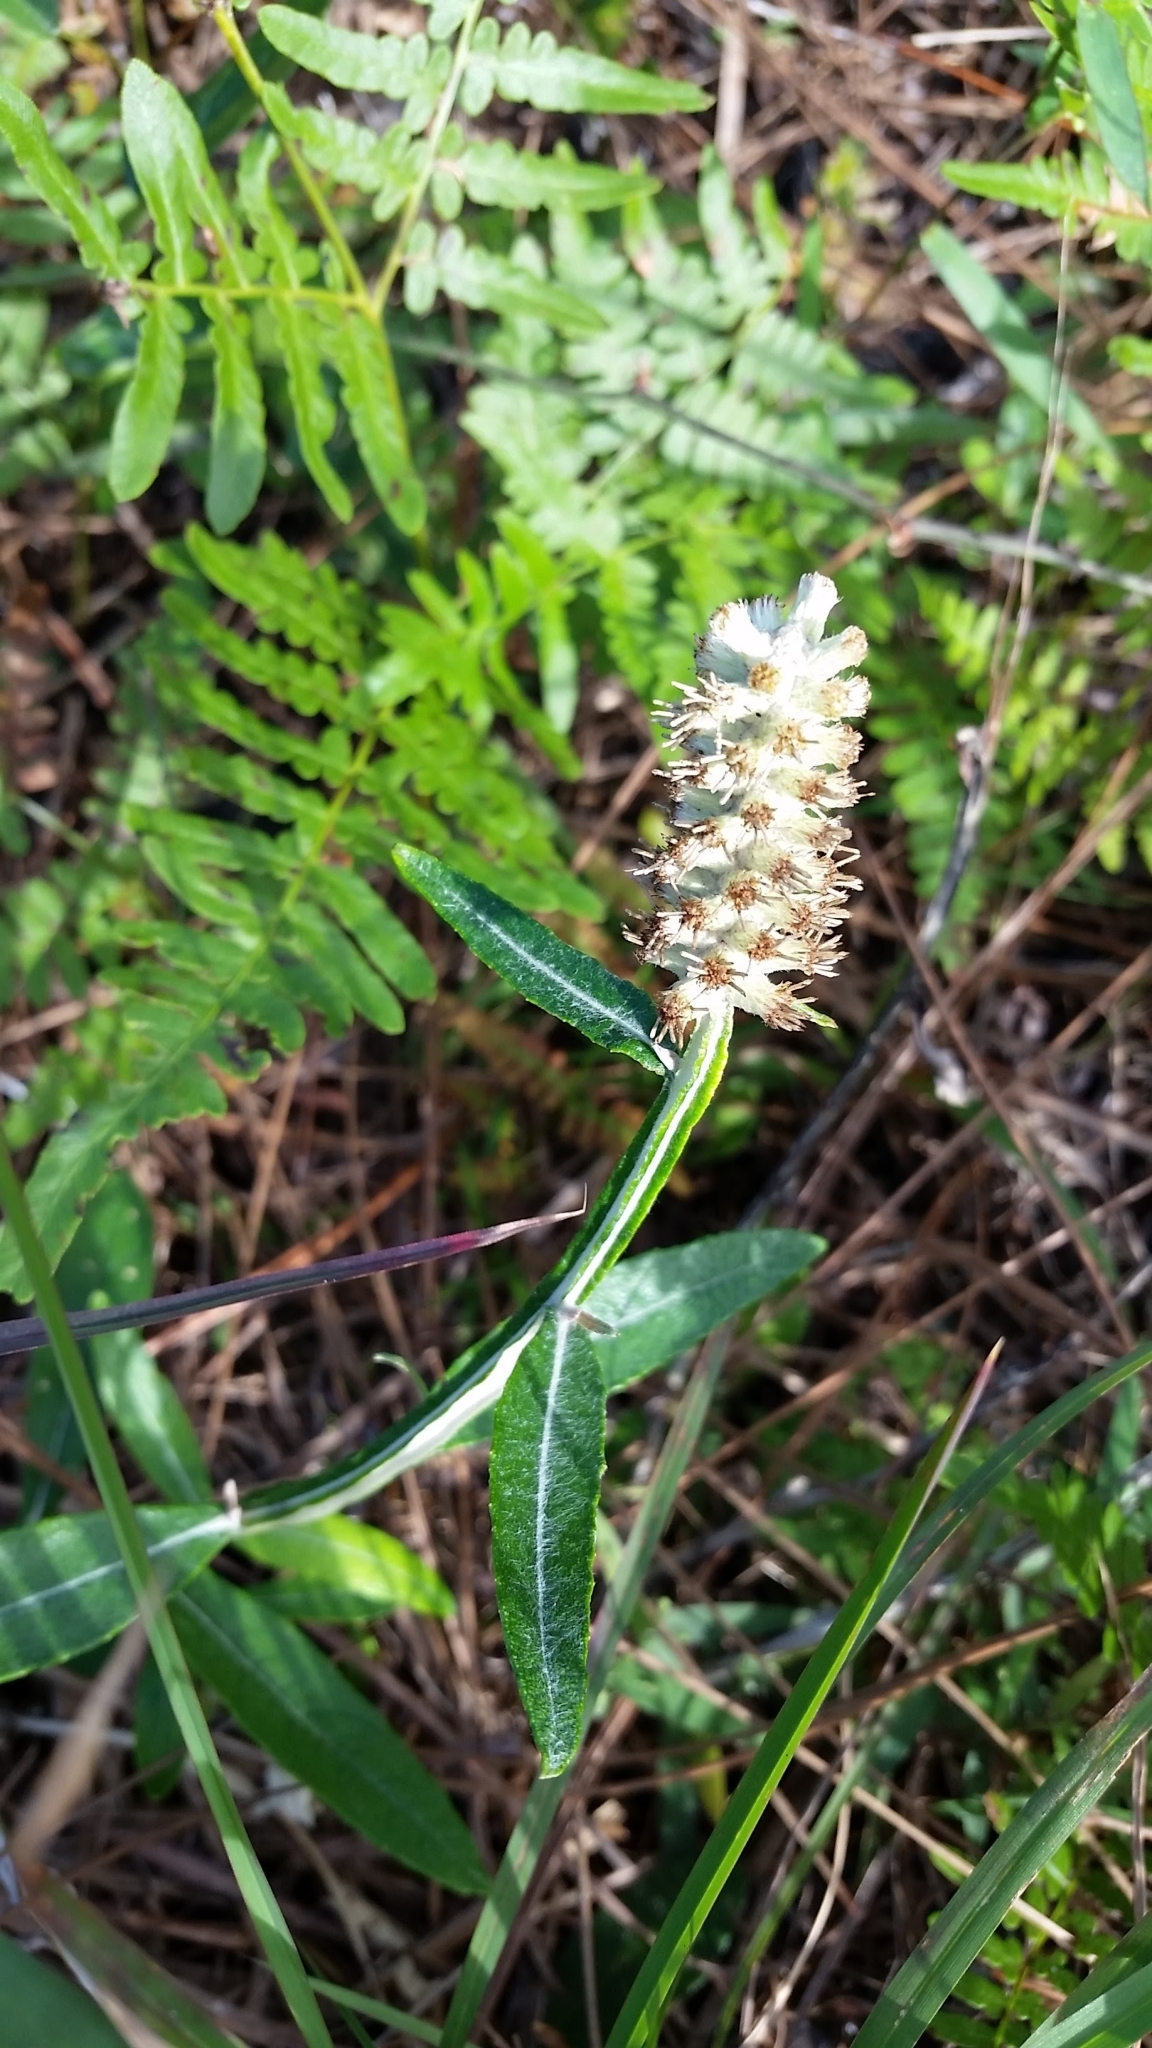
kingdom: Plantae
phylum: Tracheophyta
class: Magnoliopsida
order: Asterales
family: Asteraceae
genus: Pterocaulon
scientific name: Pterocaulon pycnostachyum
